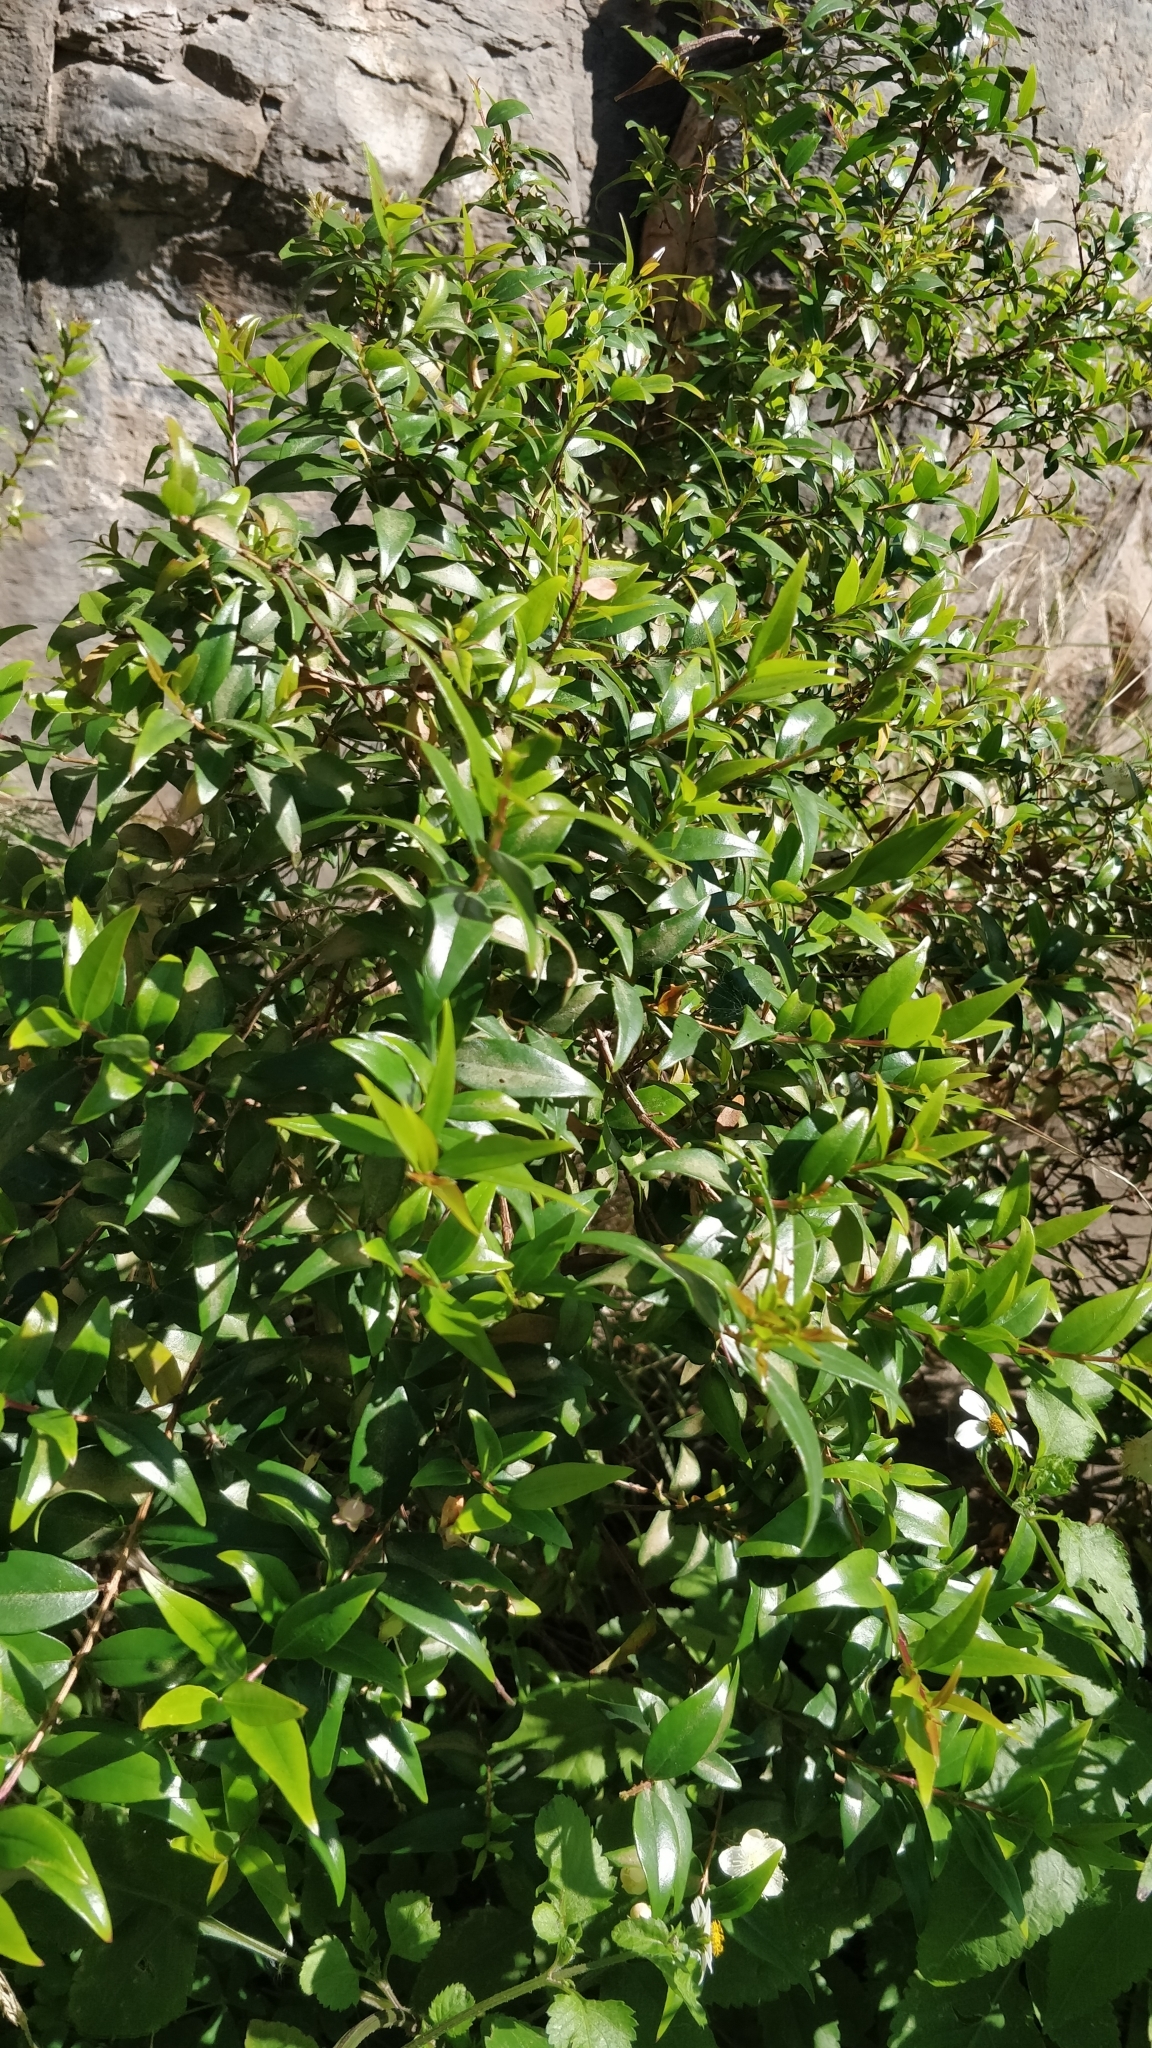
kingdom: Plantae
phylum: Tracheophyta
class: Magnoliopsida
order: Myrtales
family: Myrtaceae
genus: Myrtus
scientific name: Myrtus communis
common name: Myrtle
